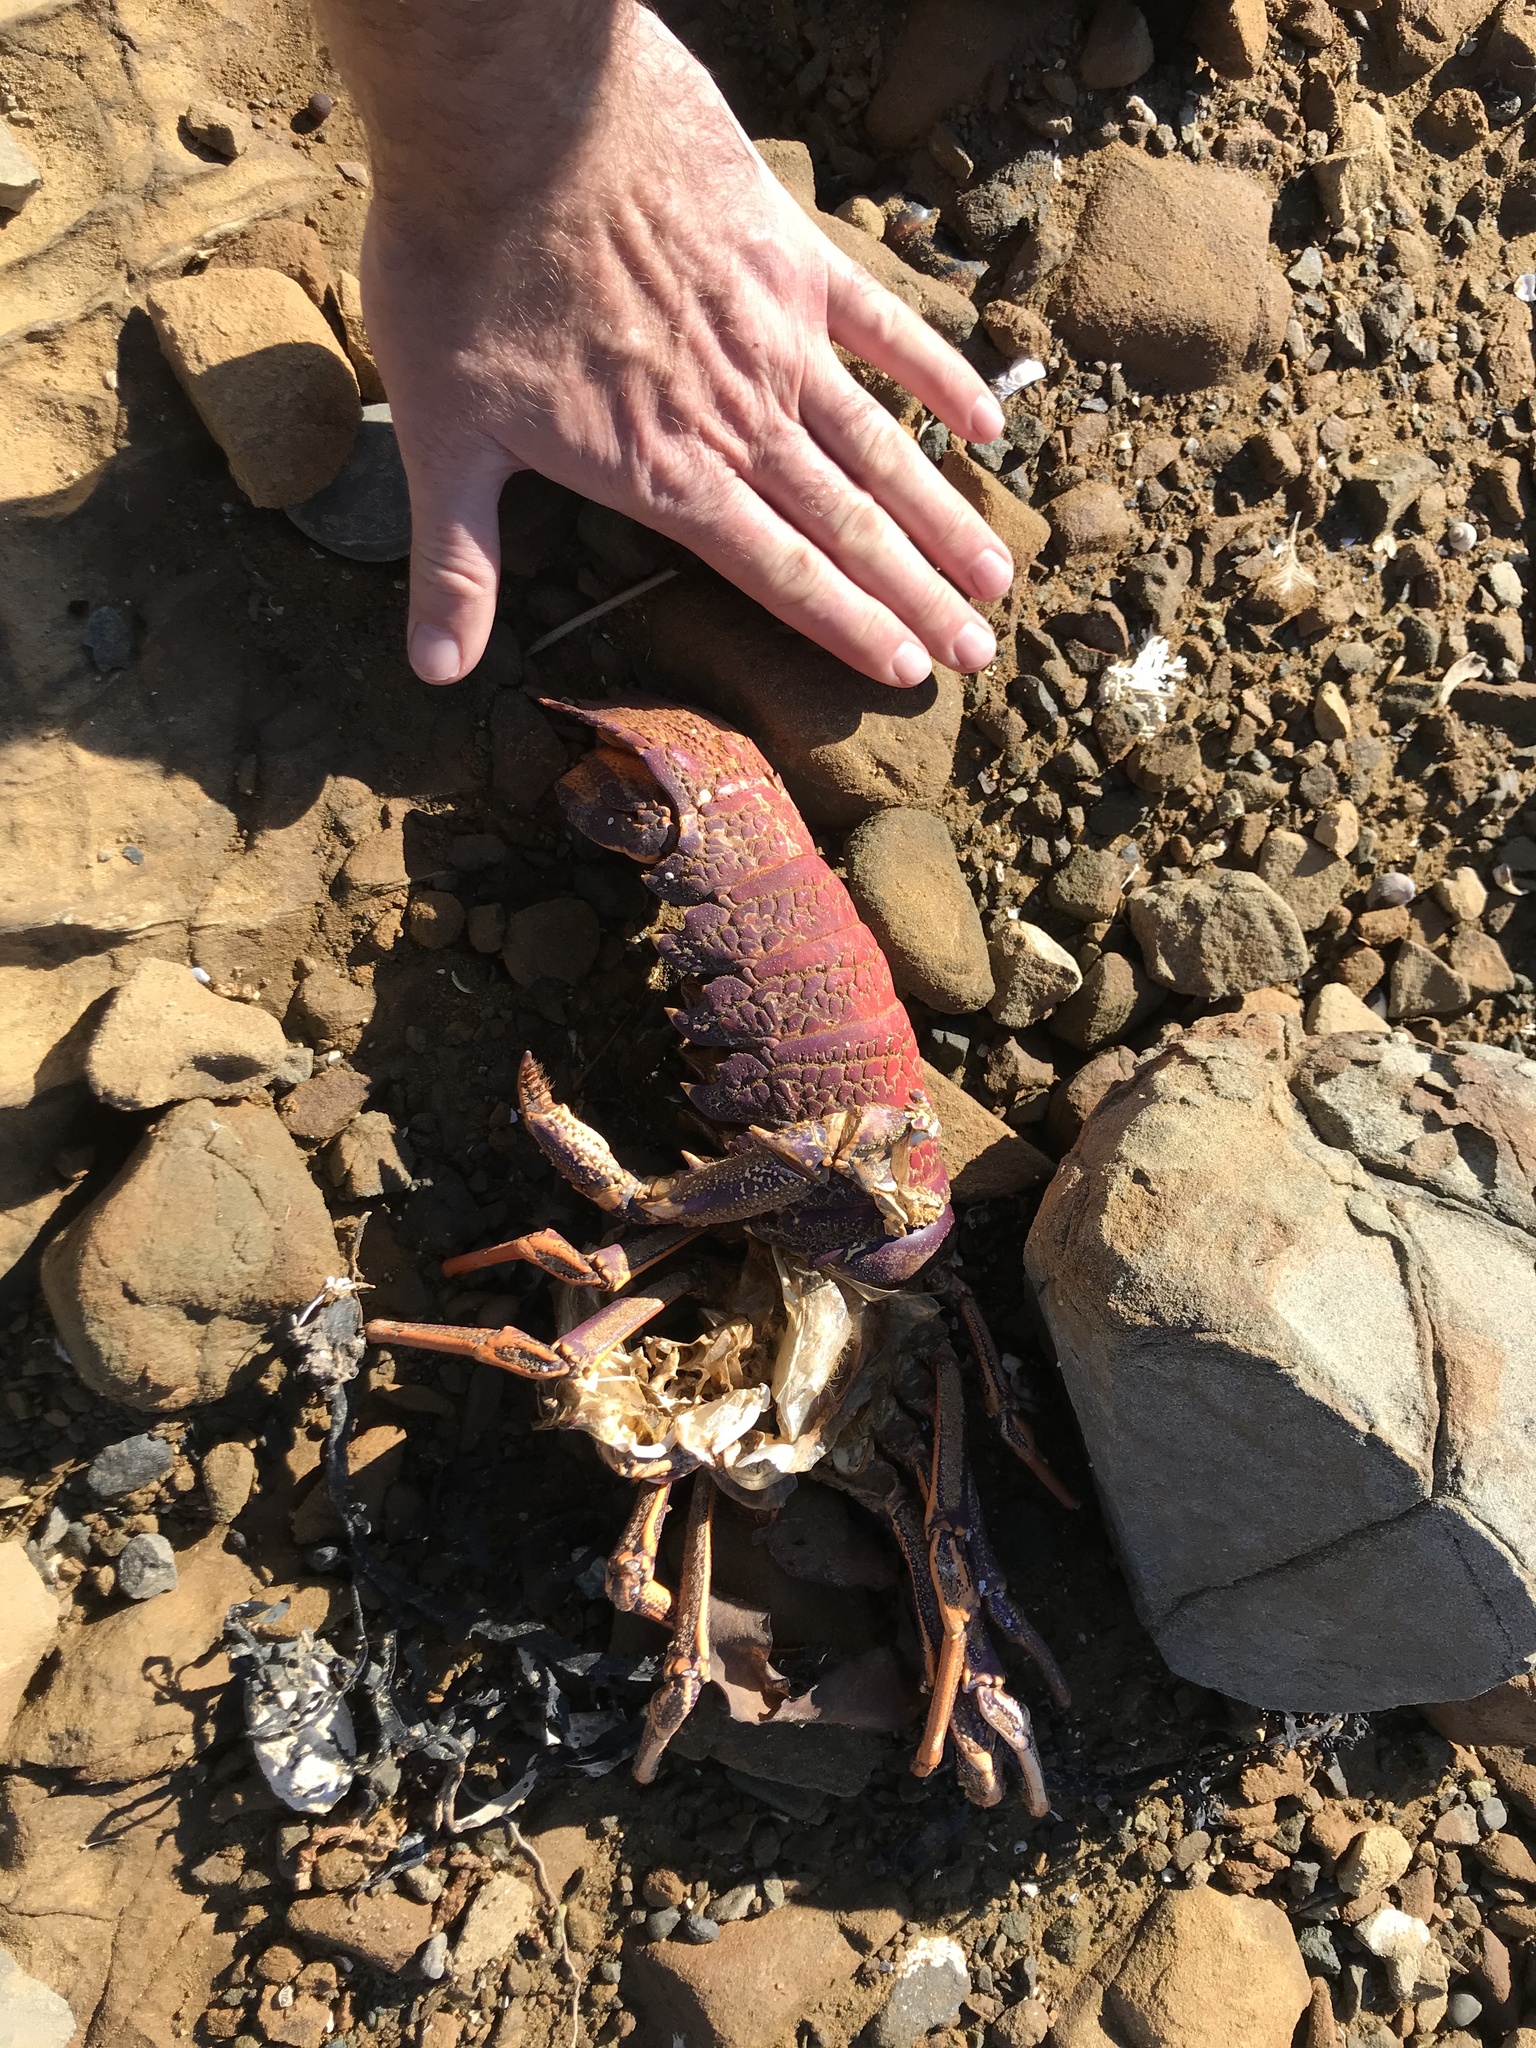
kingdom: Animalia
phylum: Arthropoda
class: Malacostraca
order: Decapoda
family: Palinuridae
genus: Jasus
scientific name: Jasus edwardsii
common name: Red rock lobster
